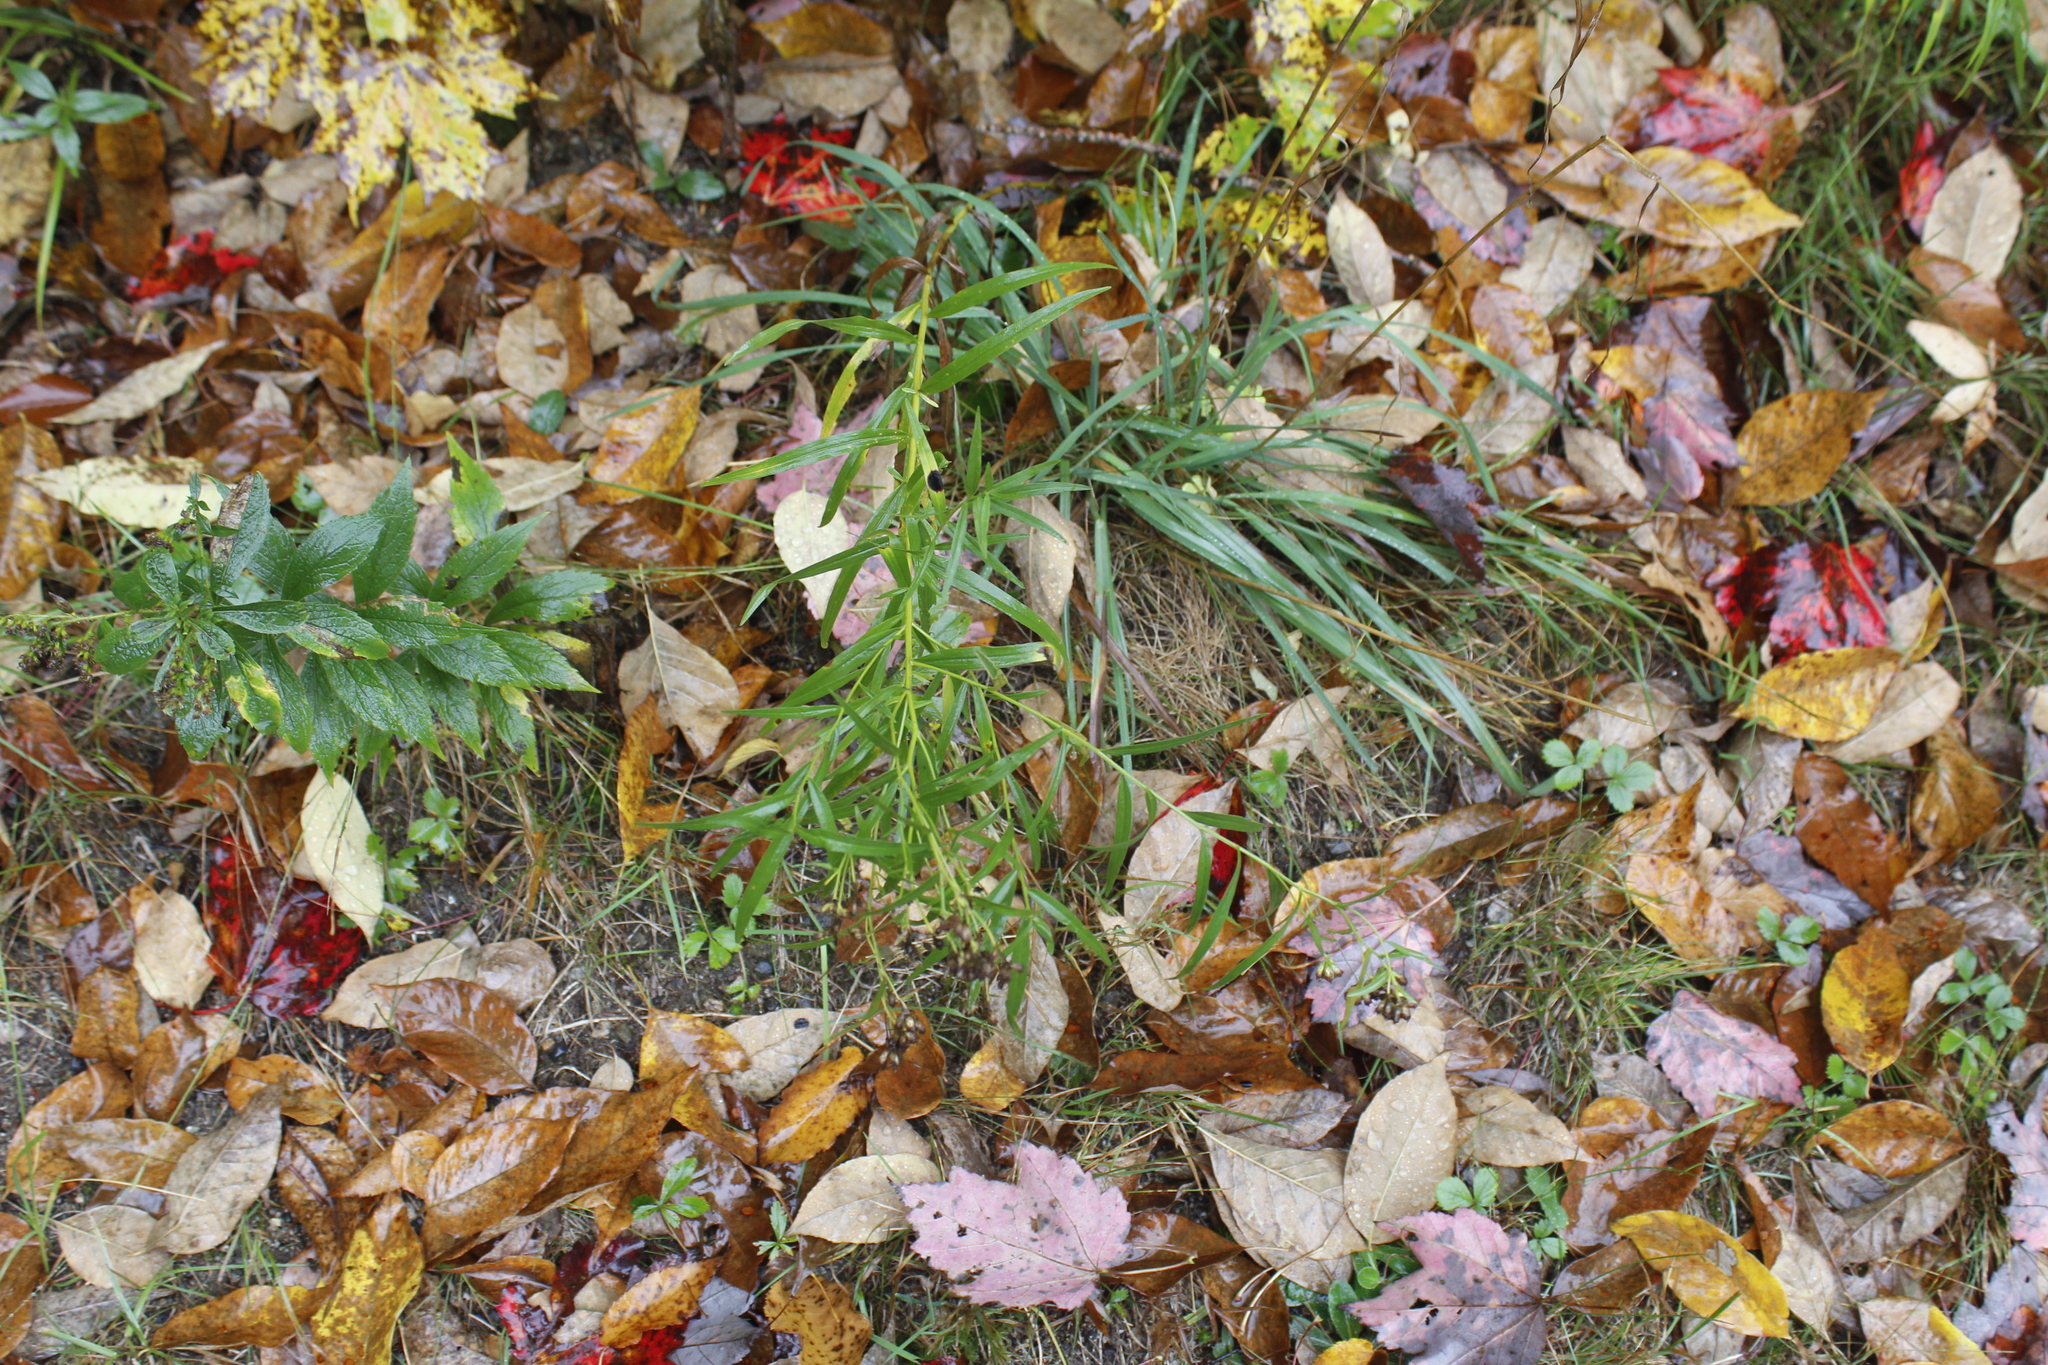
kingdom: Plantae
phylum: Tracheophyta
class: Magnoliopsida
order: Asterales
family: Asteraceae
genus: Euthamia
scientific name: Euthamia graminifolia
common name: Common goldentop
